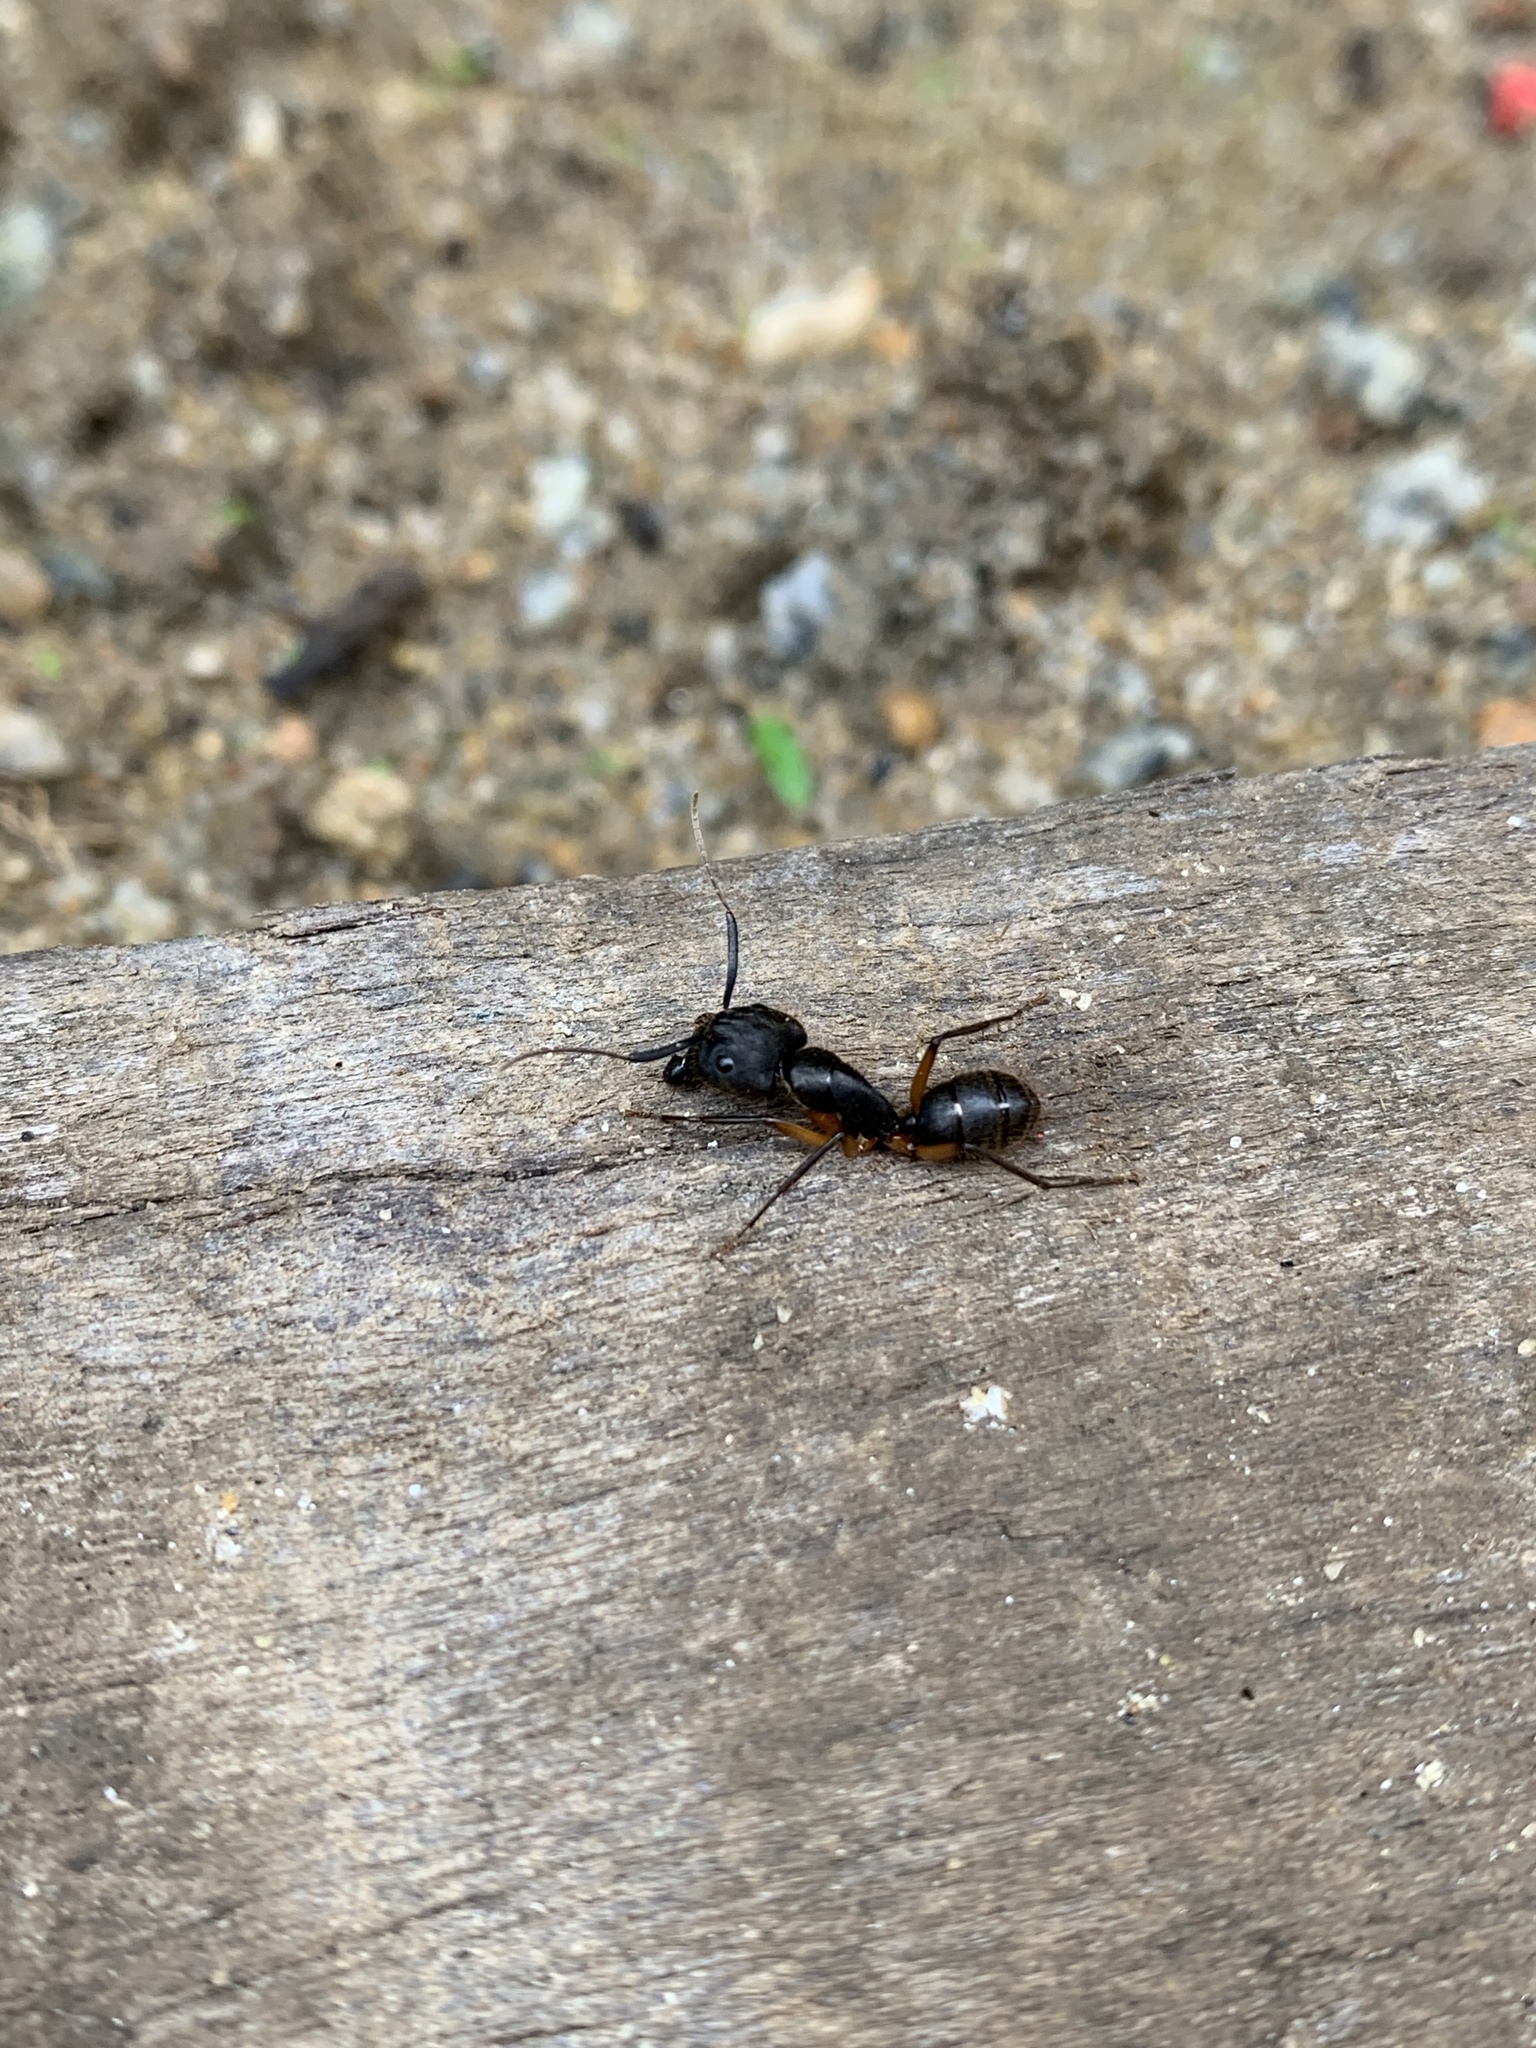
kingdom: Animalia
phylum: Arthropoda
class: Insecta
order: Hymenoptera
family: Formicidae
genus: Camponotus
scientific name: Camponotus renggeri
